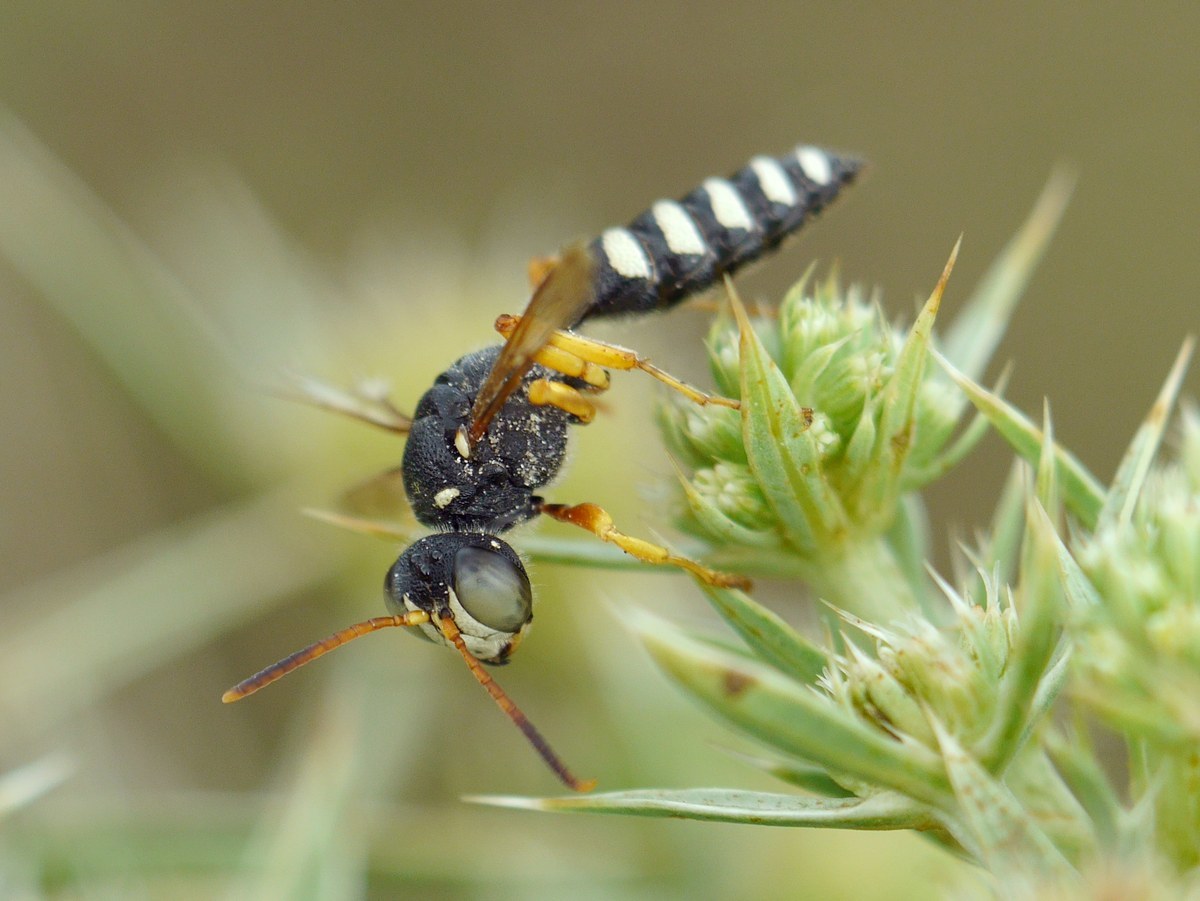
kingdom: Animalia
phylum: Arthropoda
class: Insecta
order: Hymenoptera
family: Crabronidae
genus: Cerceris
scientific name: Cerceris tuberculata
